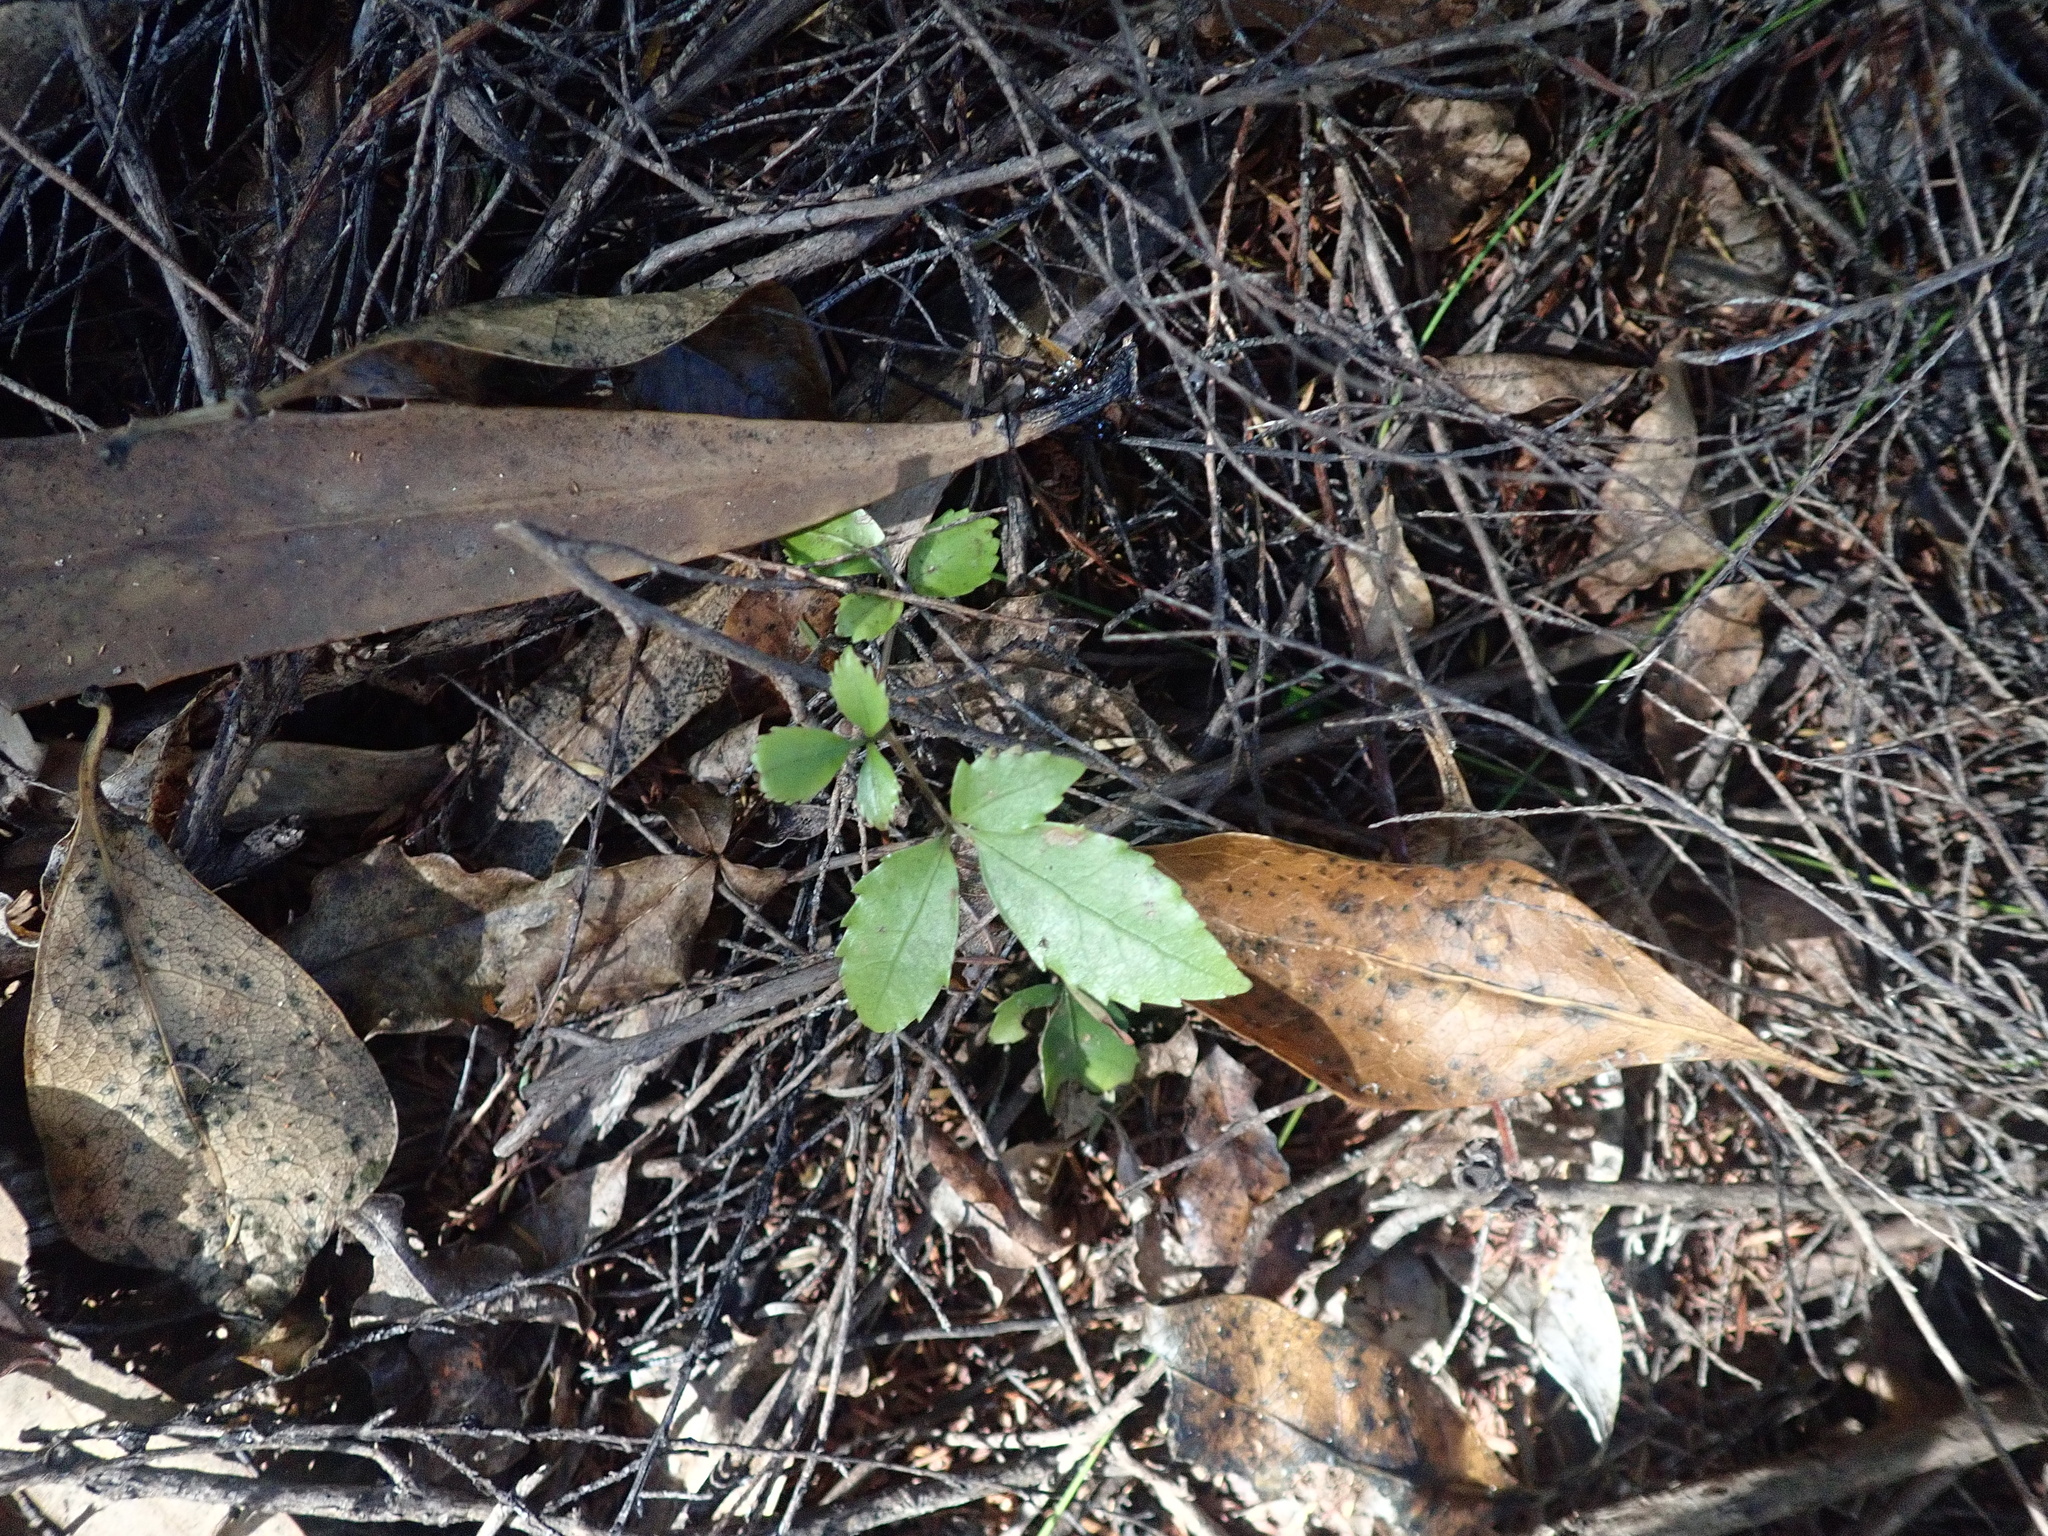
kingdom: Plantae
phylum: Tracheophyta
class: Magnoliopsida
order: Apiales
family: Araliaceae
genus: Pseudopanax
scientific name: Pseudopanax crassifolius
